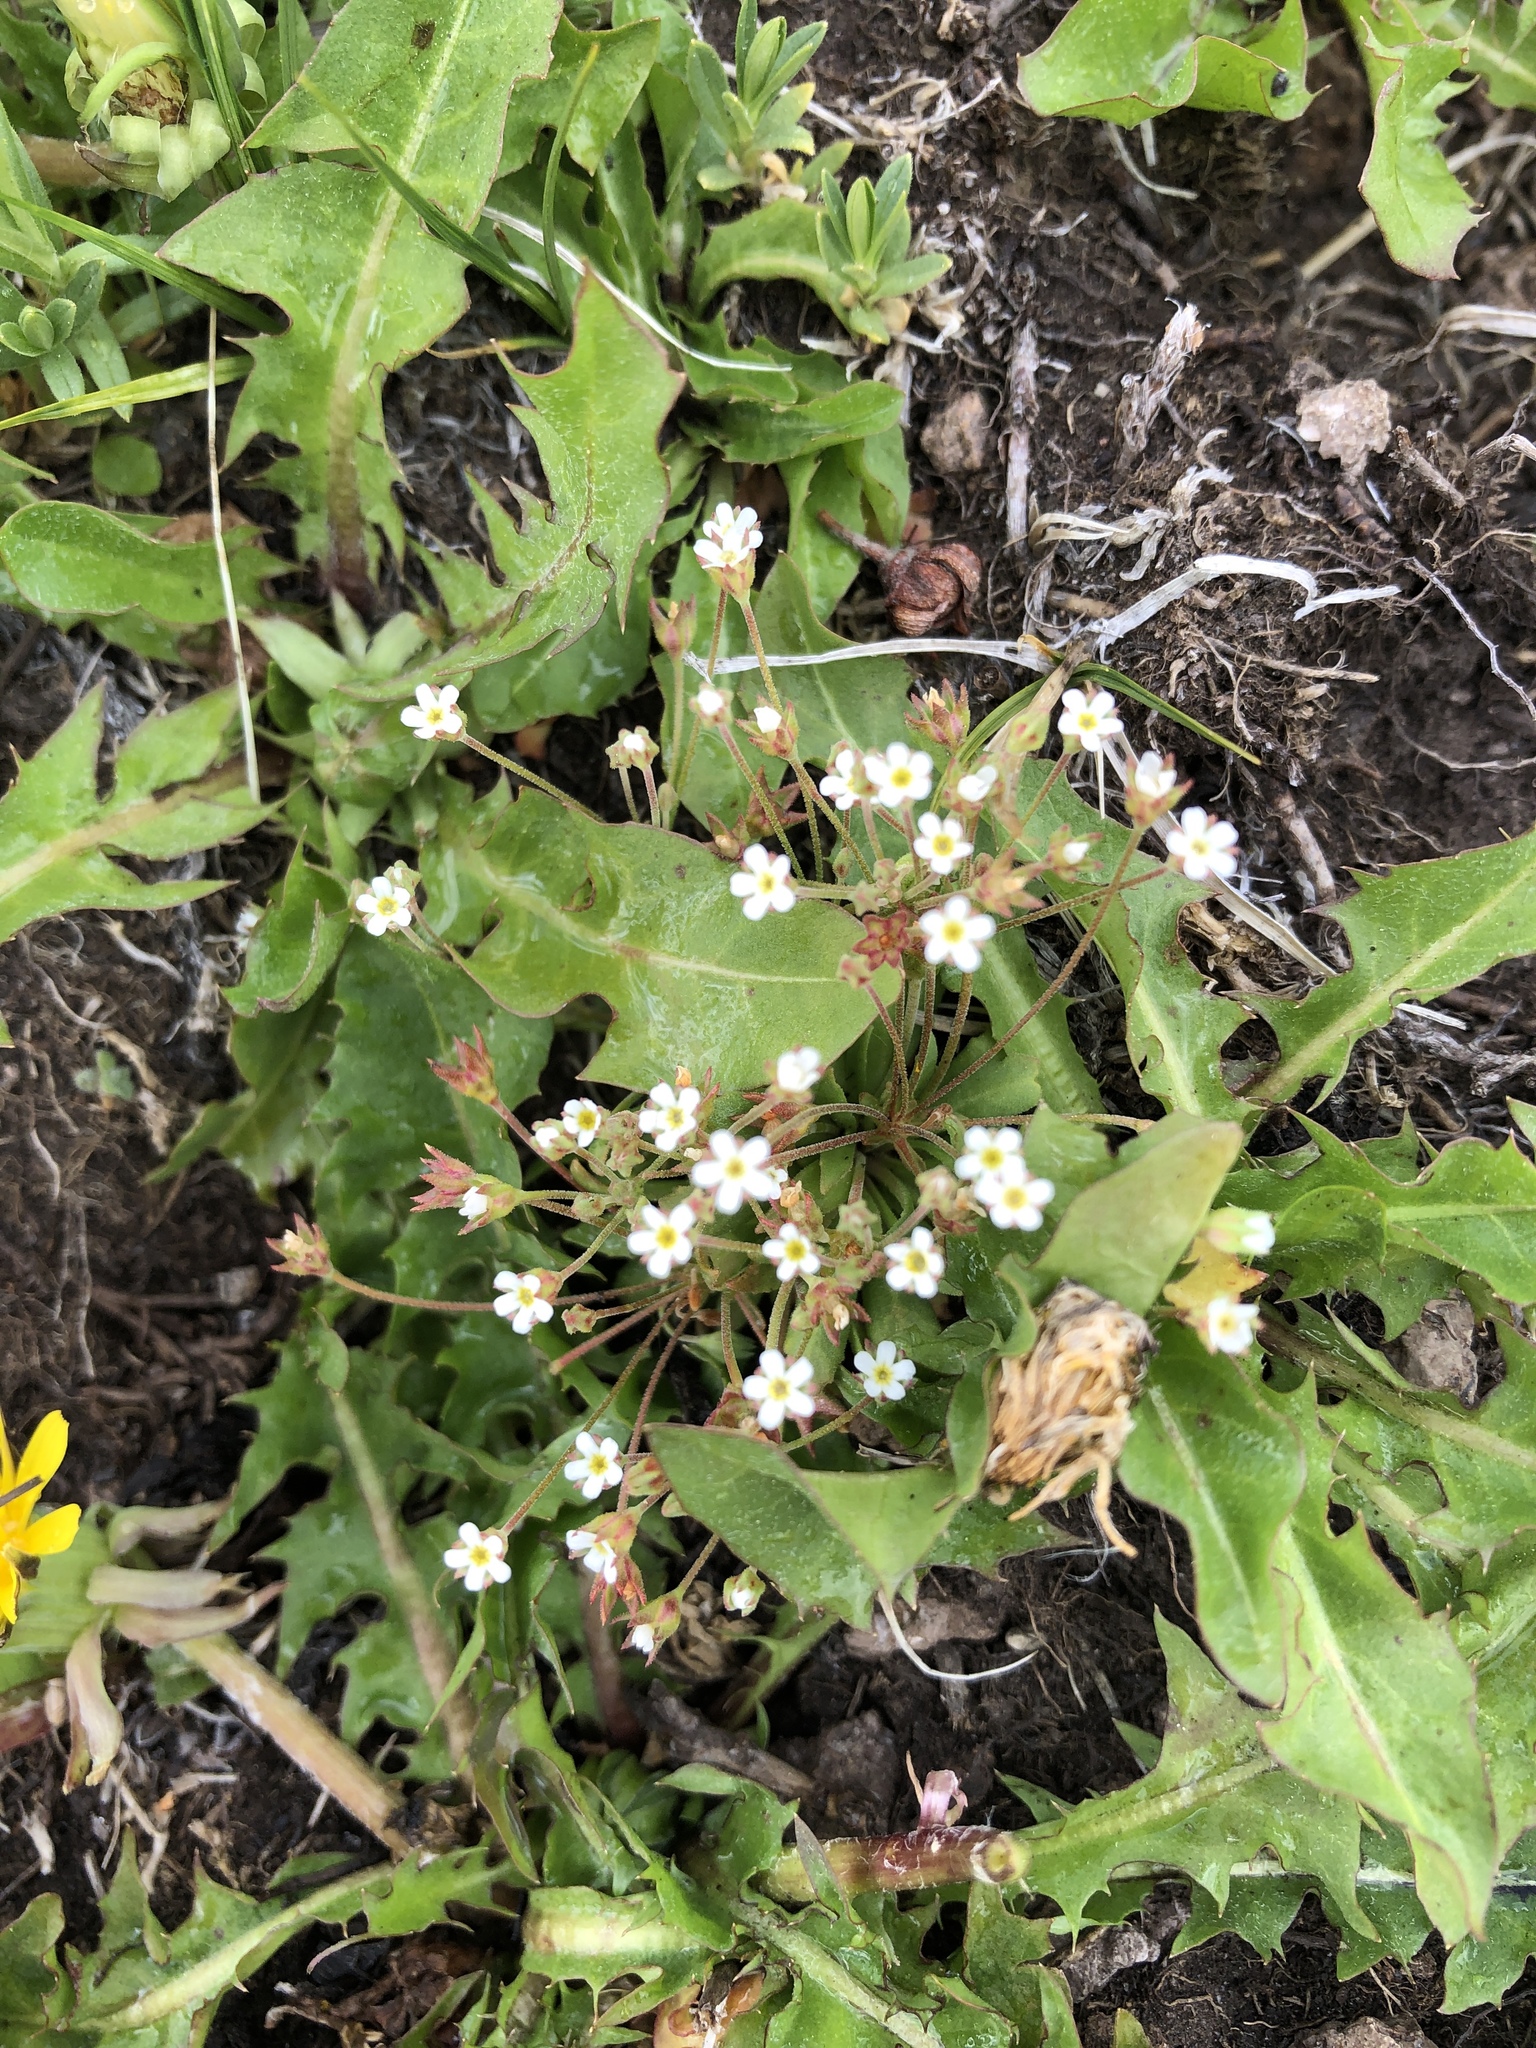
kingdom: Plantae
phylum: Tracheophyta
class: Magnoliopsida
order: Ericales
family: Primulaceae
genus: Androsace
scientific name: Androsace septentrionalis
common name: Hairy northern fairy-candelabra
